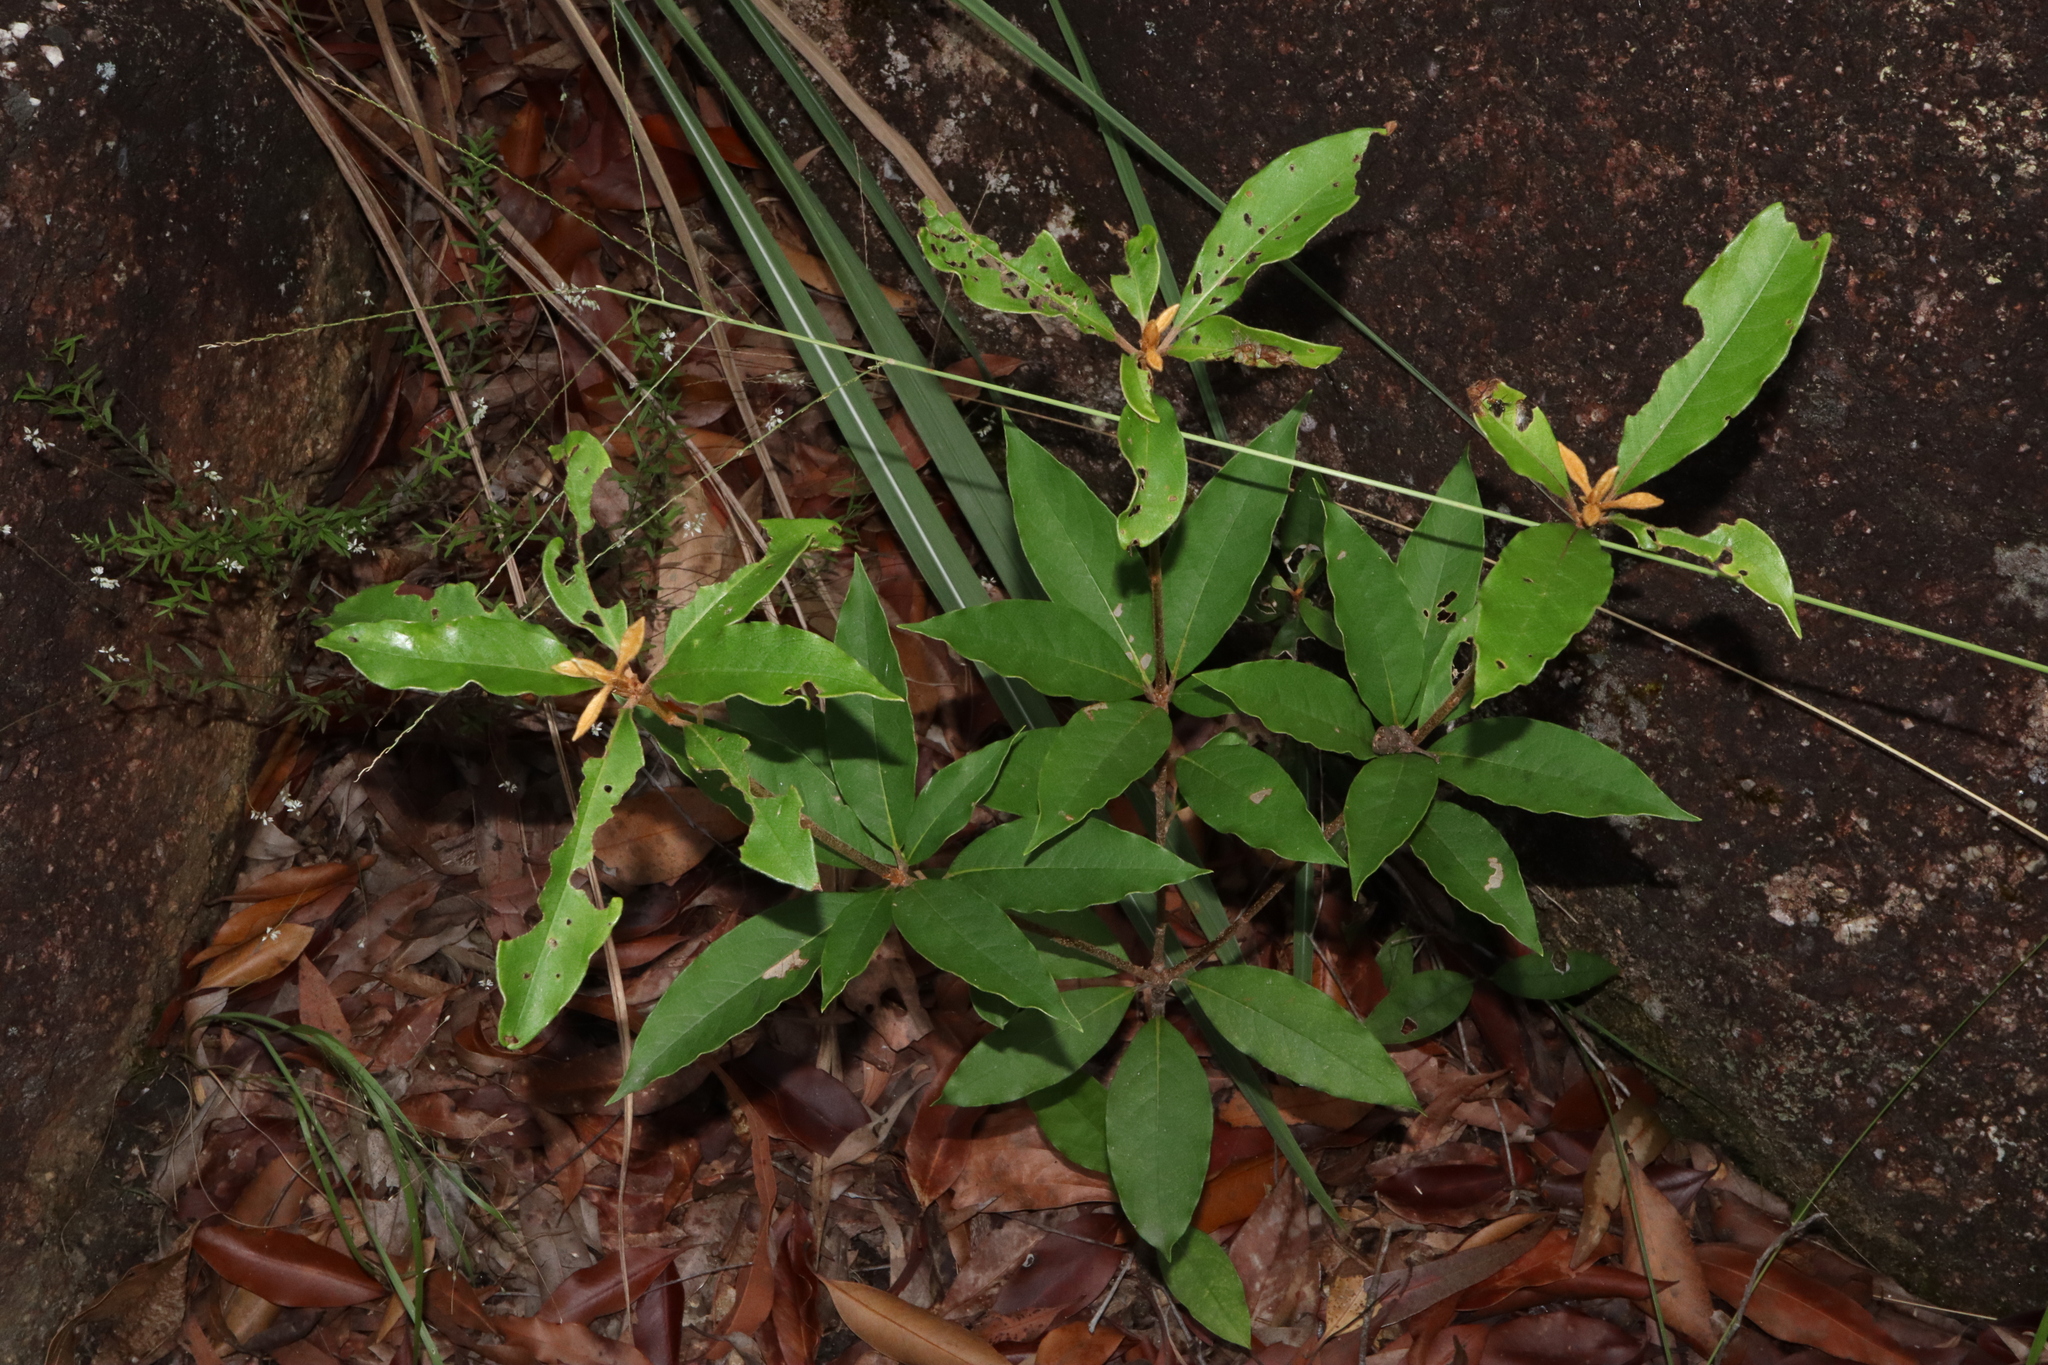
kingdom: Plantae
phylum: Tracheophyta
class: Magnoliopsida
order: Apiales
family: Pittosporaceae
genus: Pittosporum
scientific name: Pittosporum revolutum
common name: Brisbane-laurel
